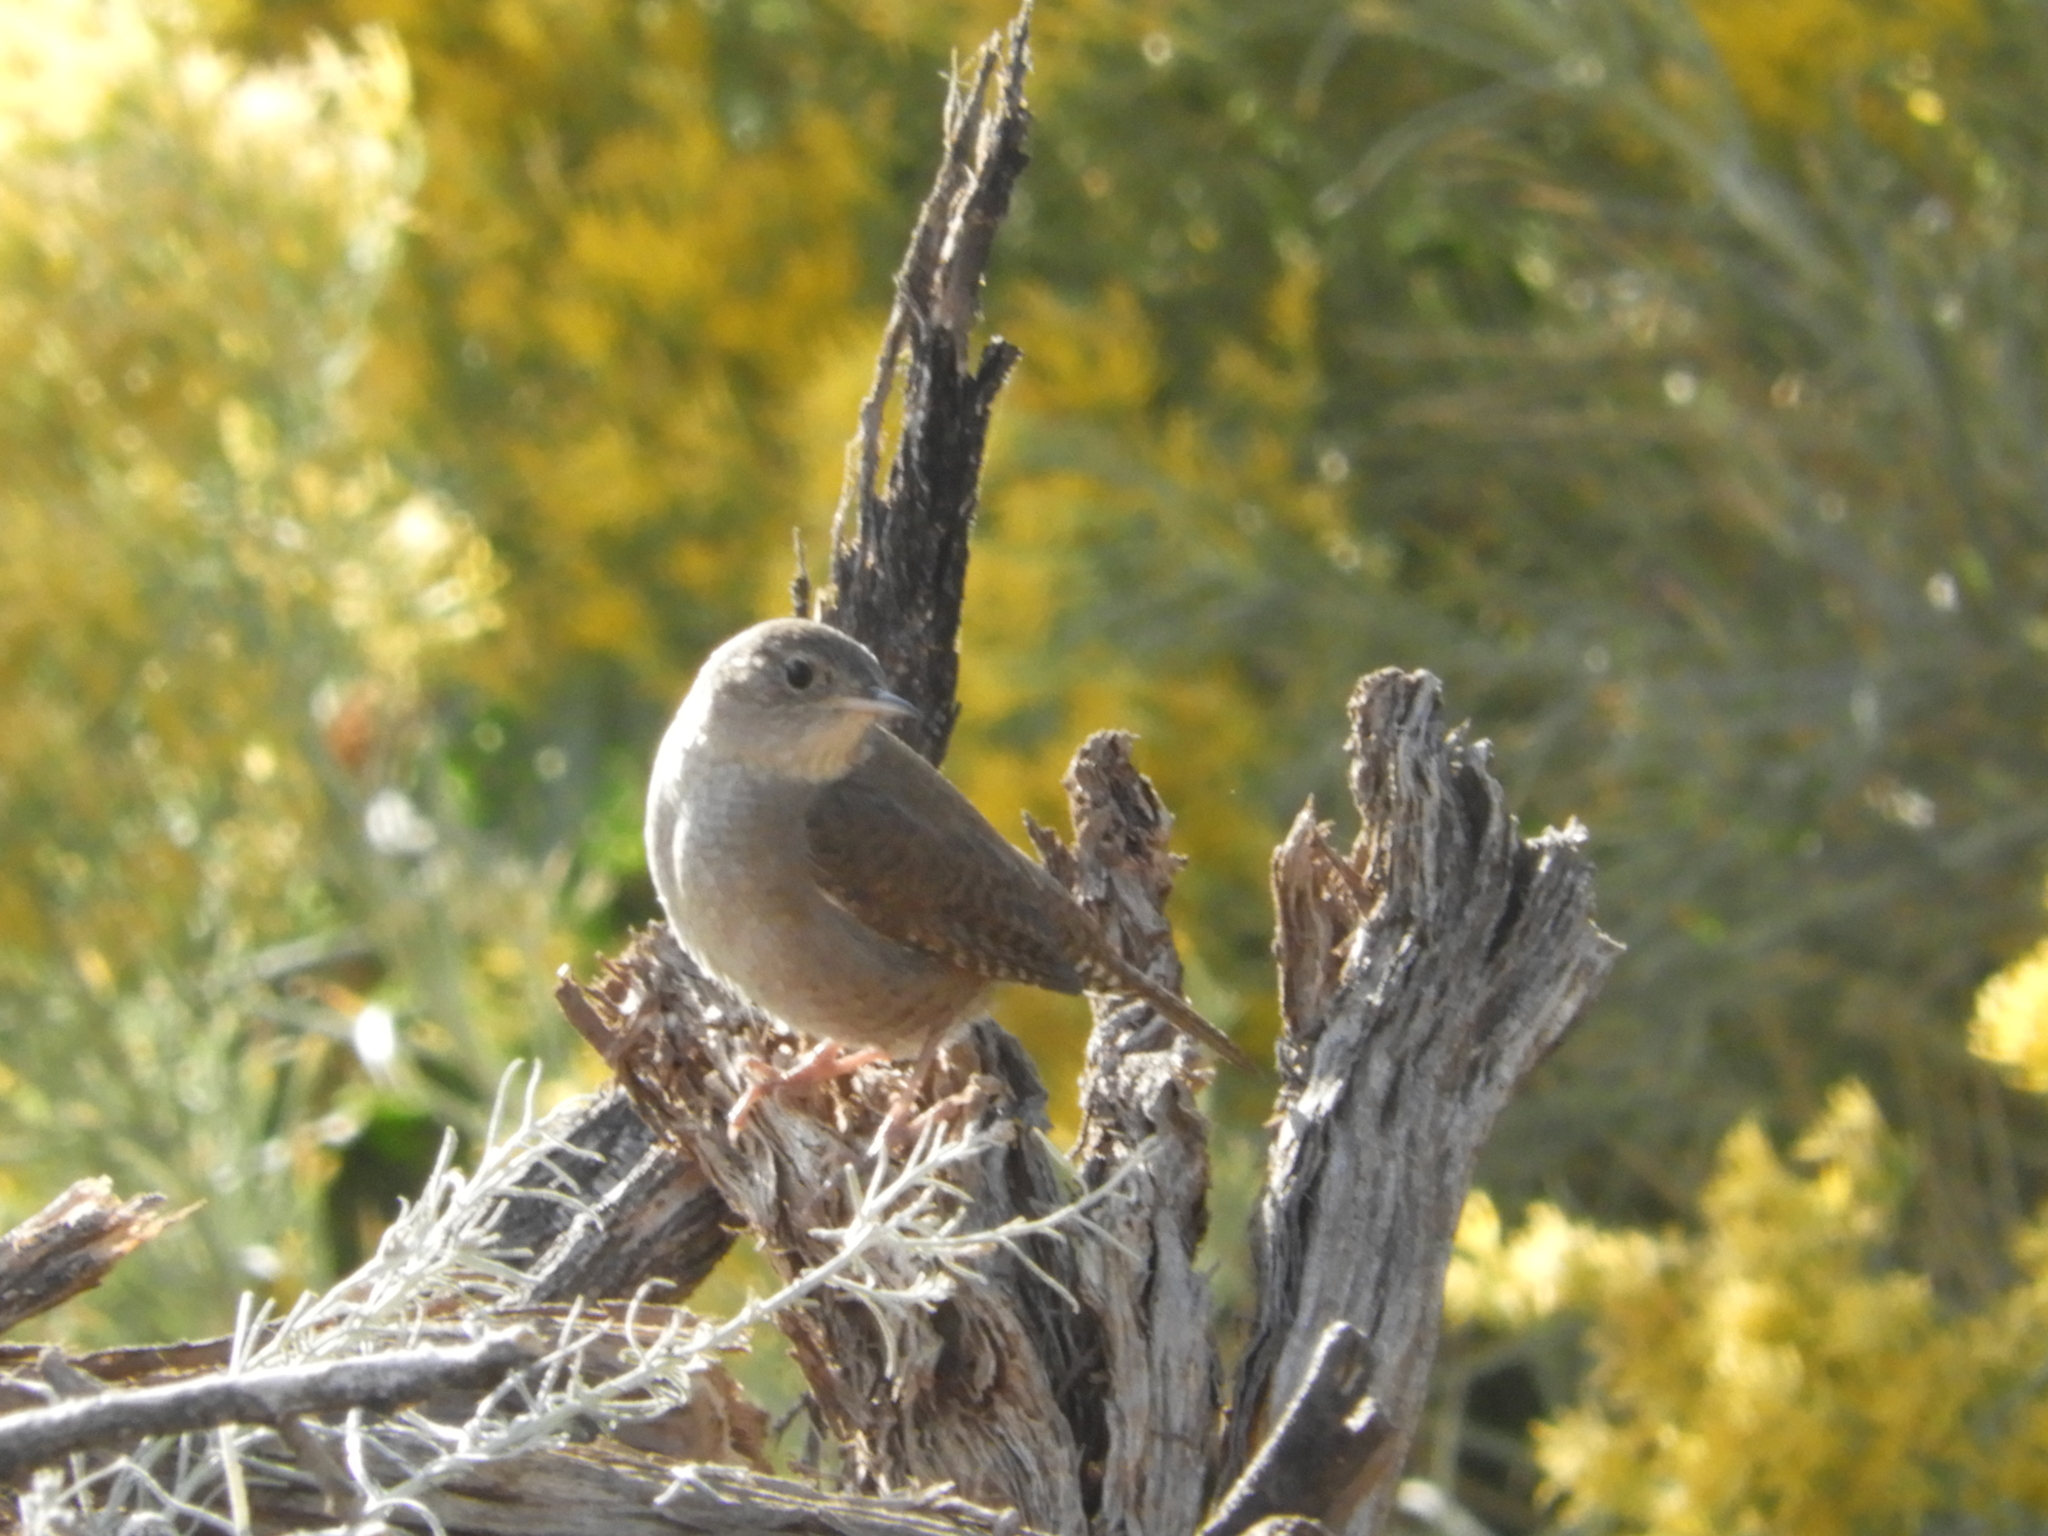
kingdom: Animalia
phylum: Chordata
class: Aves
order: Passeriformes
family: Troglodytidae
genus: Troglodytes
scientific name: Troglodytes aedon
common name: House wren
